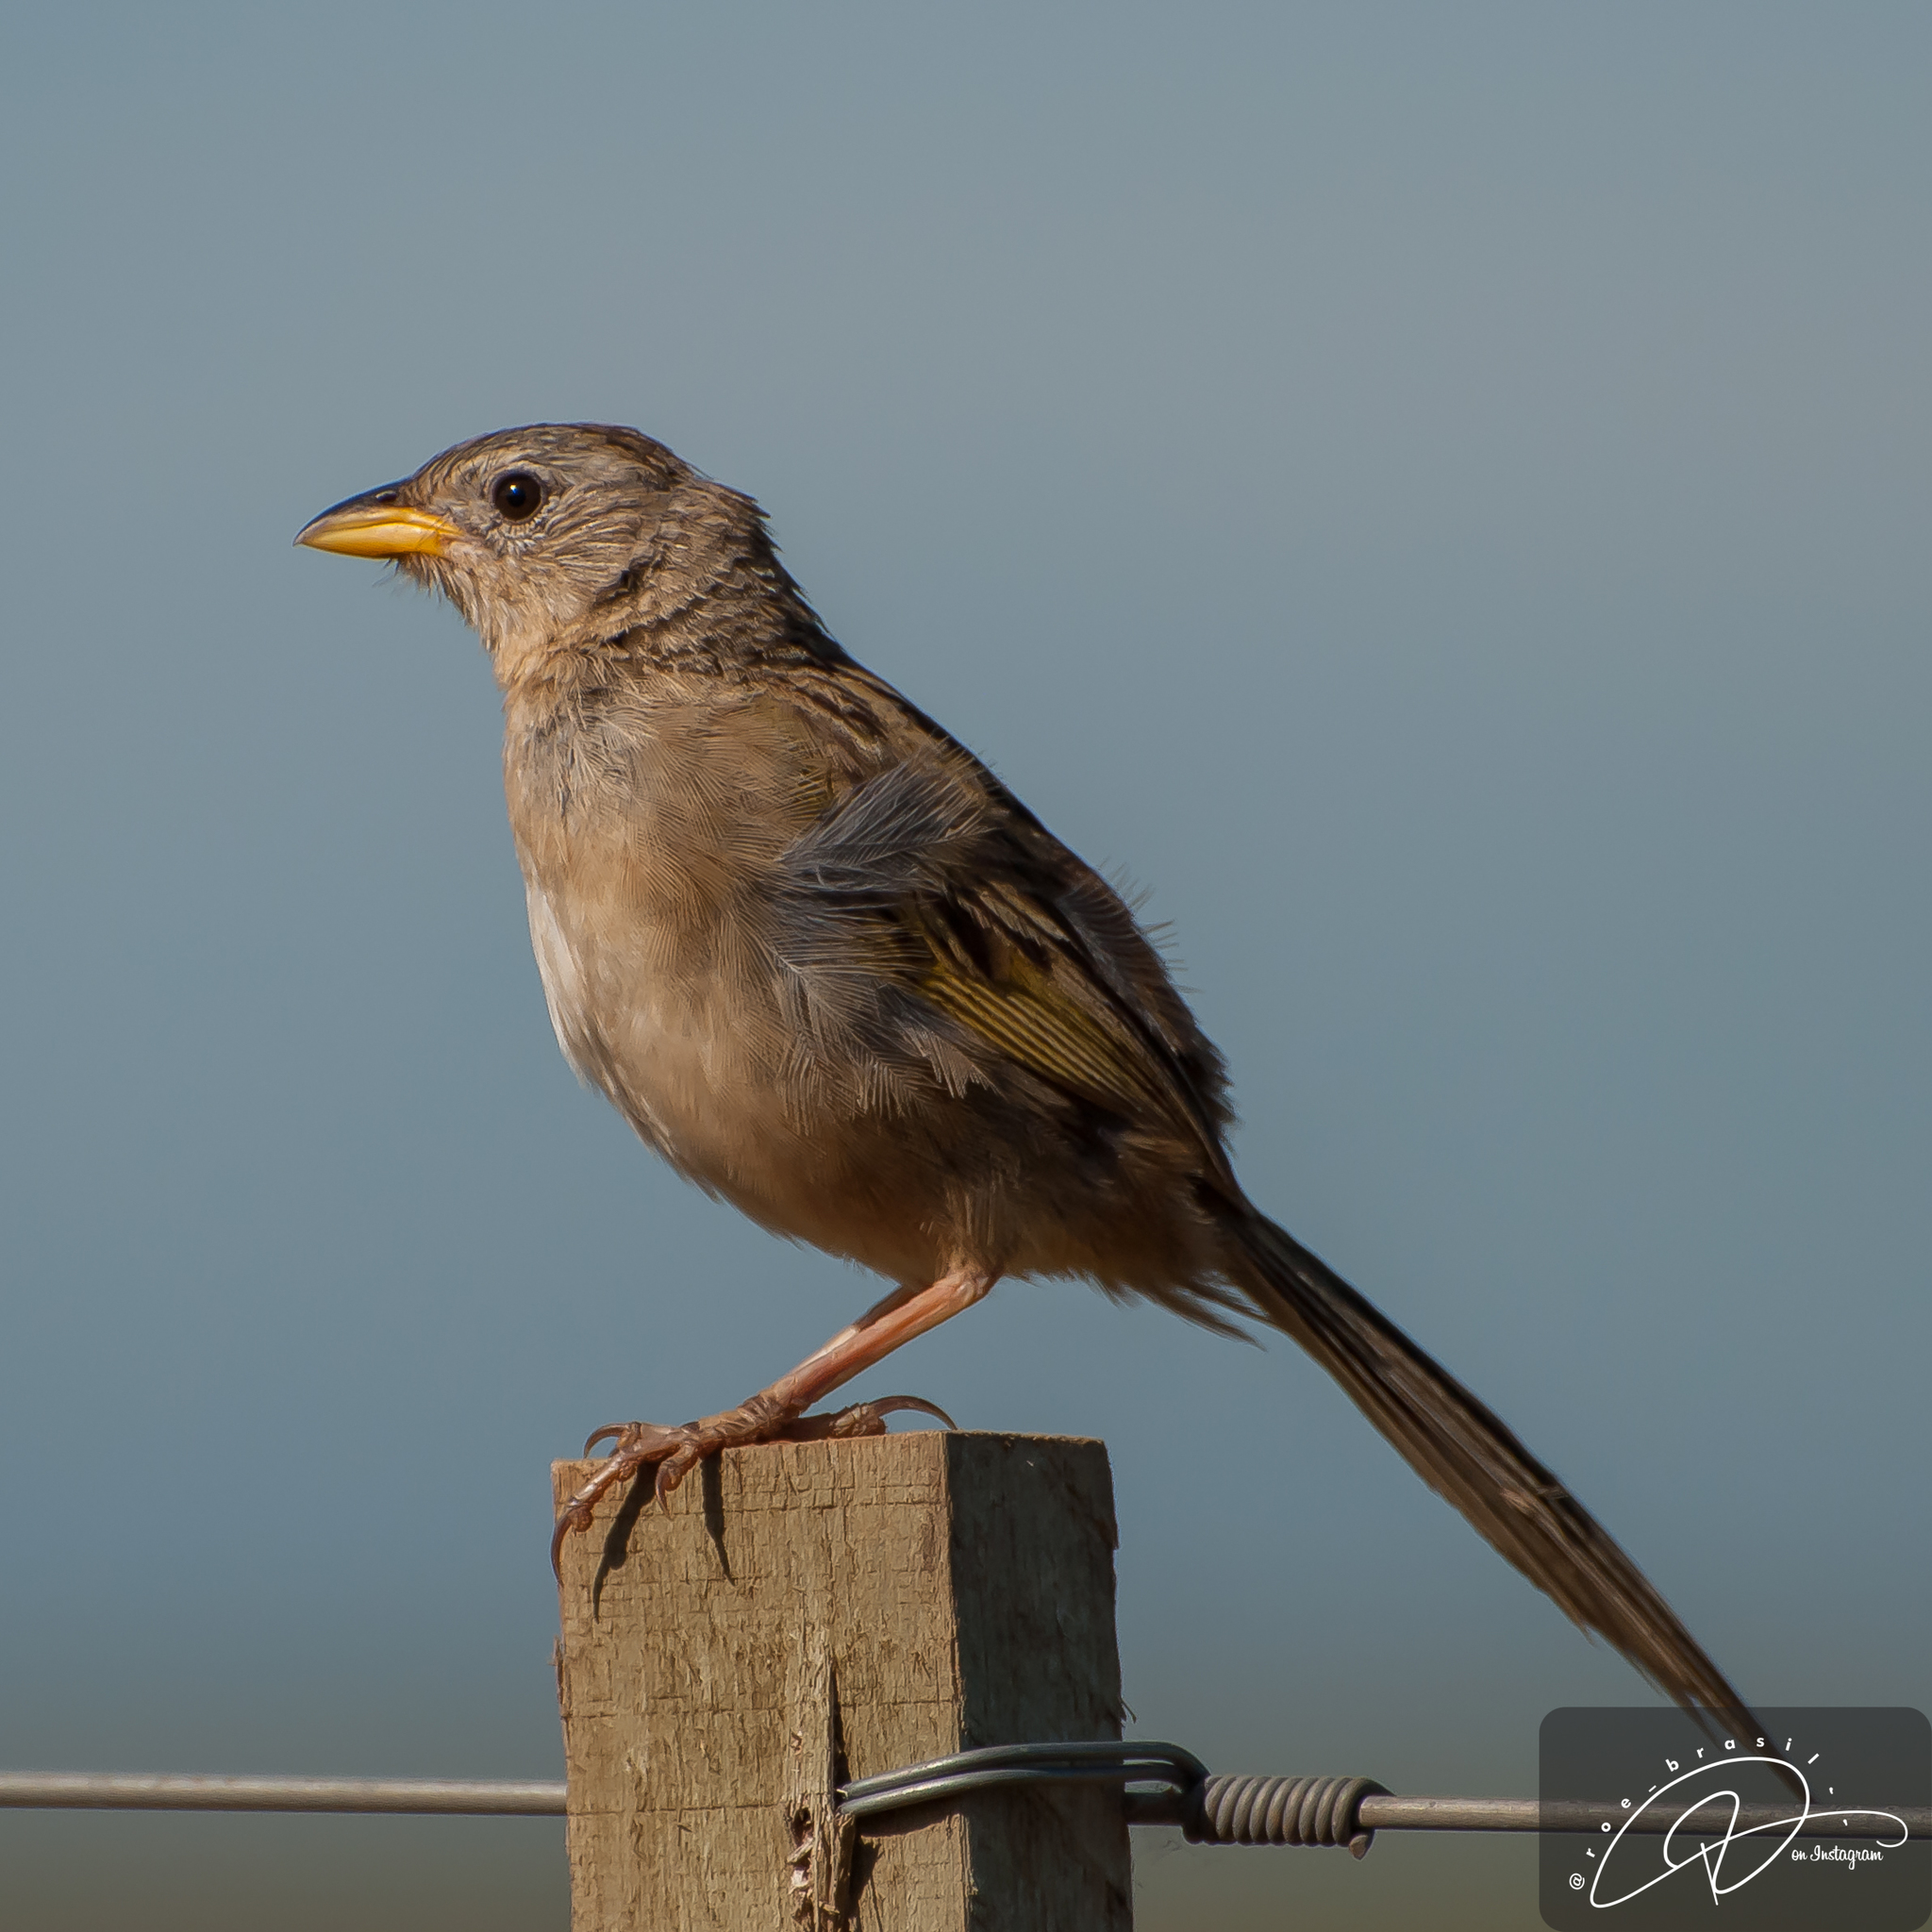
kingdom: Animalia
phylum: Chordata
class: Aves
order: Passeriformes
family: Thraupidae
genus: Emberizoides
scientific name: Emberizoides herbicola
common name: Wedge-tailed grass-finch
